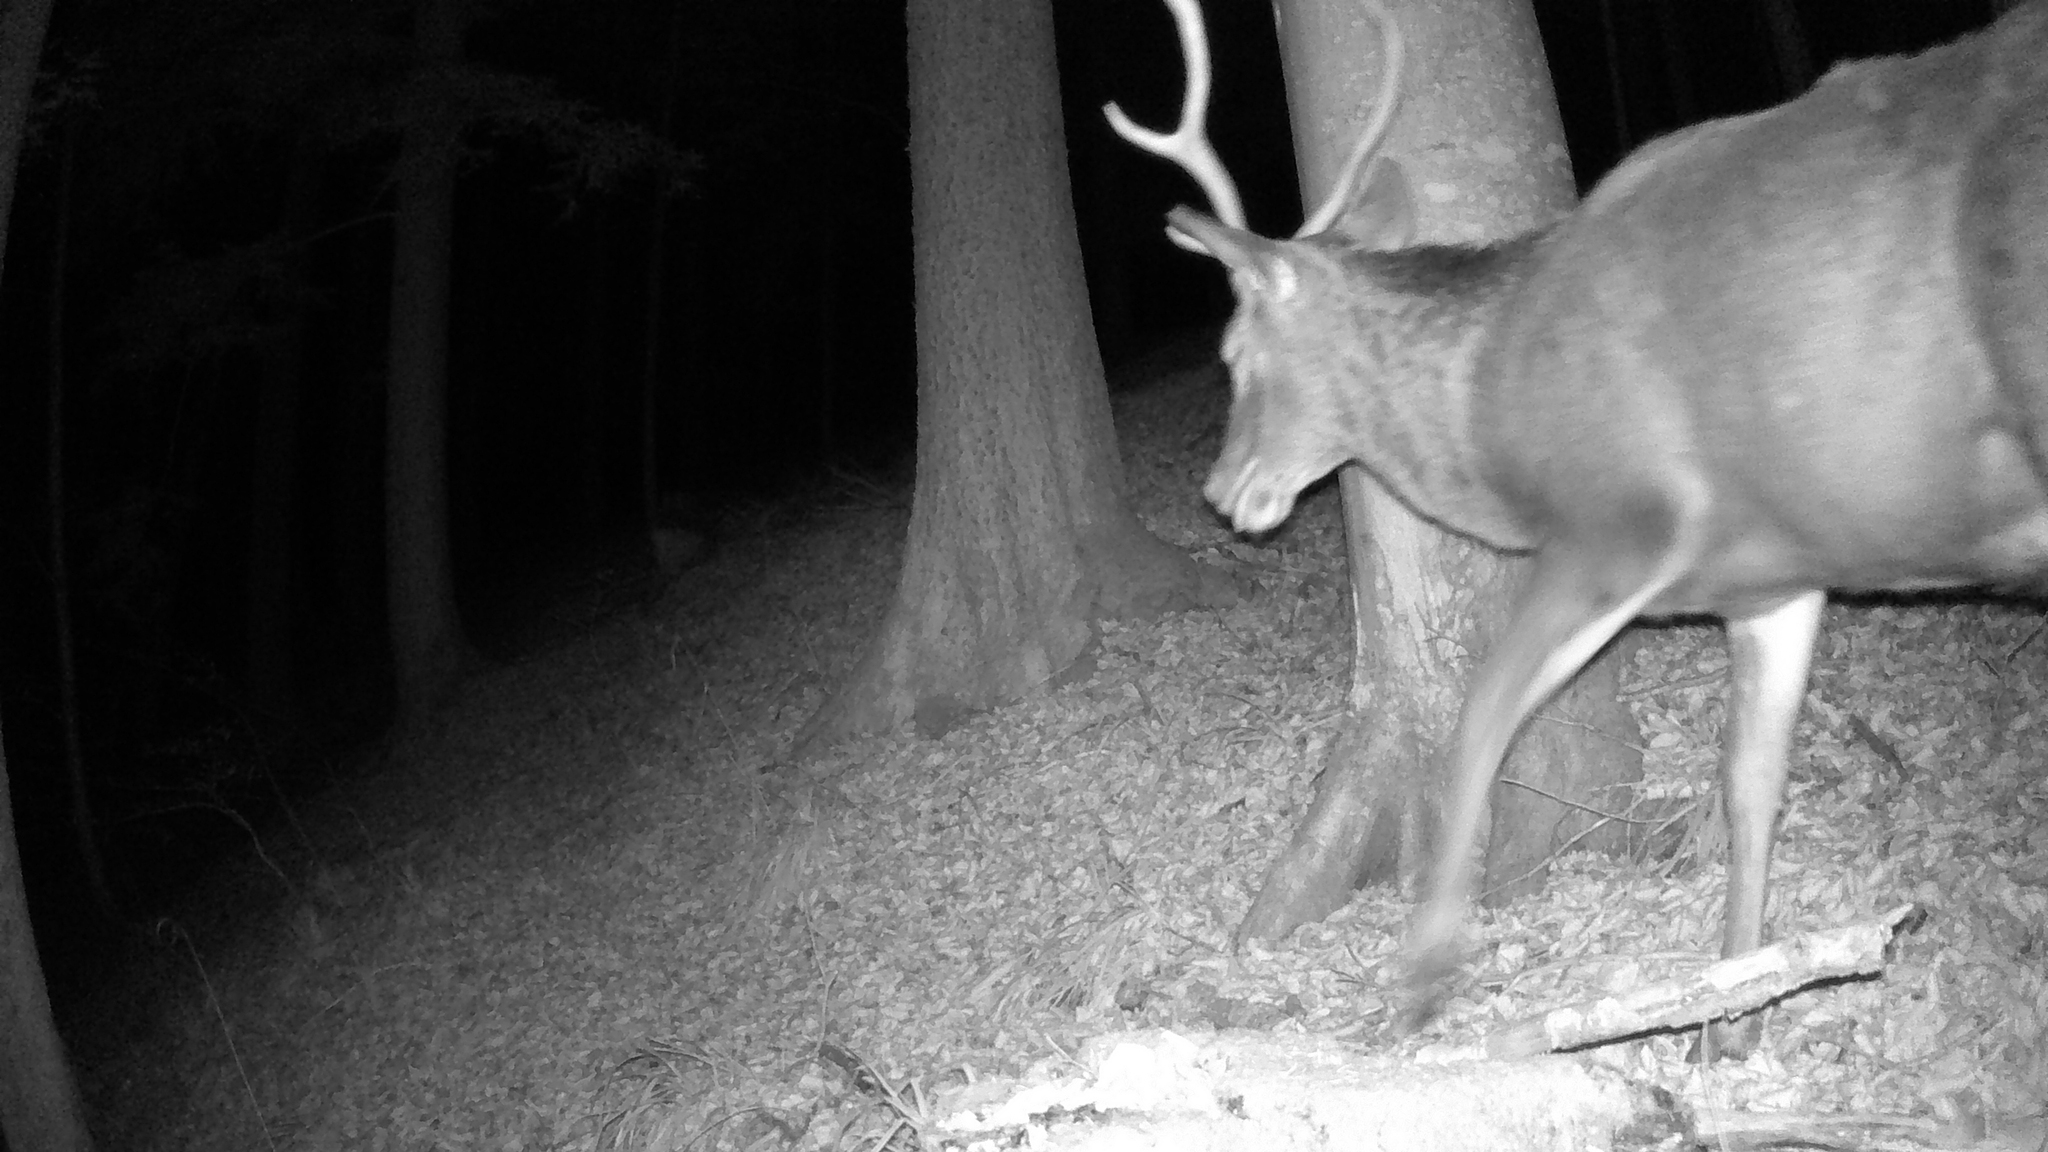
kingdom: Animalia
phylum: Chordata
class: Mammalia
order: Artiodactyla
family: Cervidae
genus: Cervus
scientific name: Cervus elaphus
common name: Red deer
